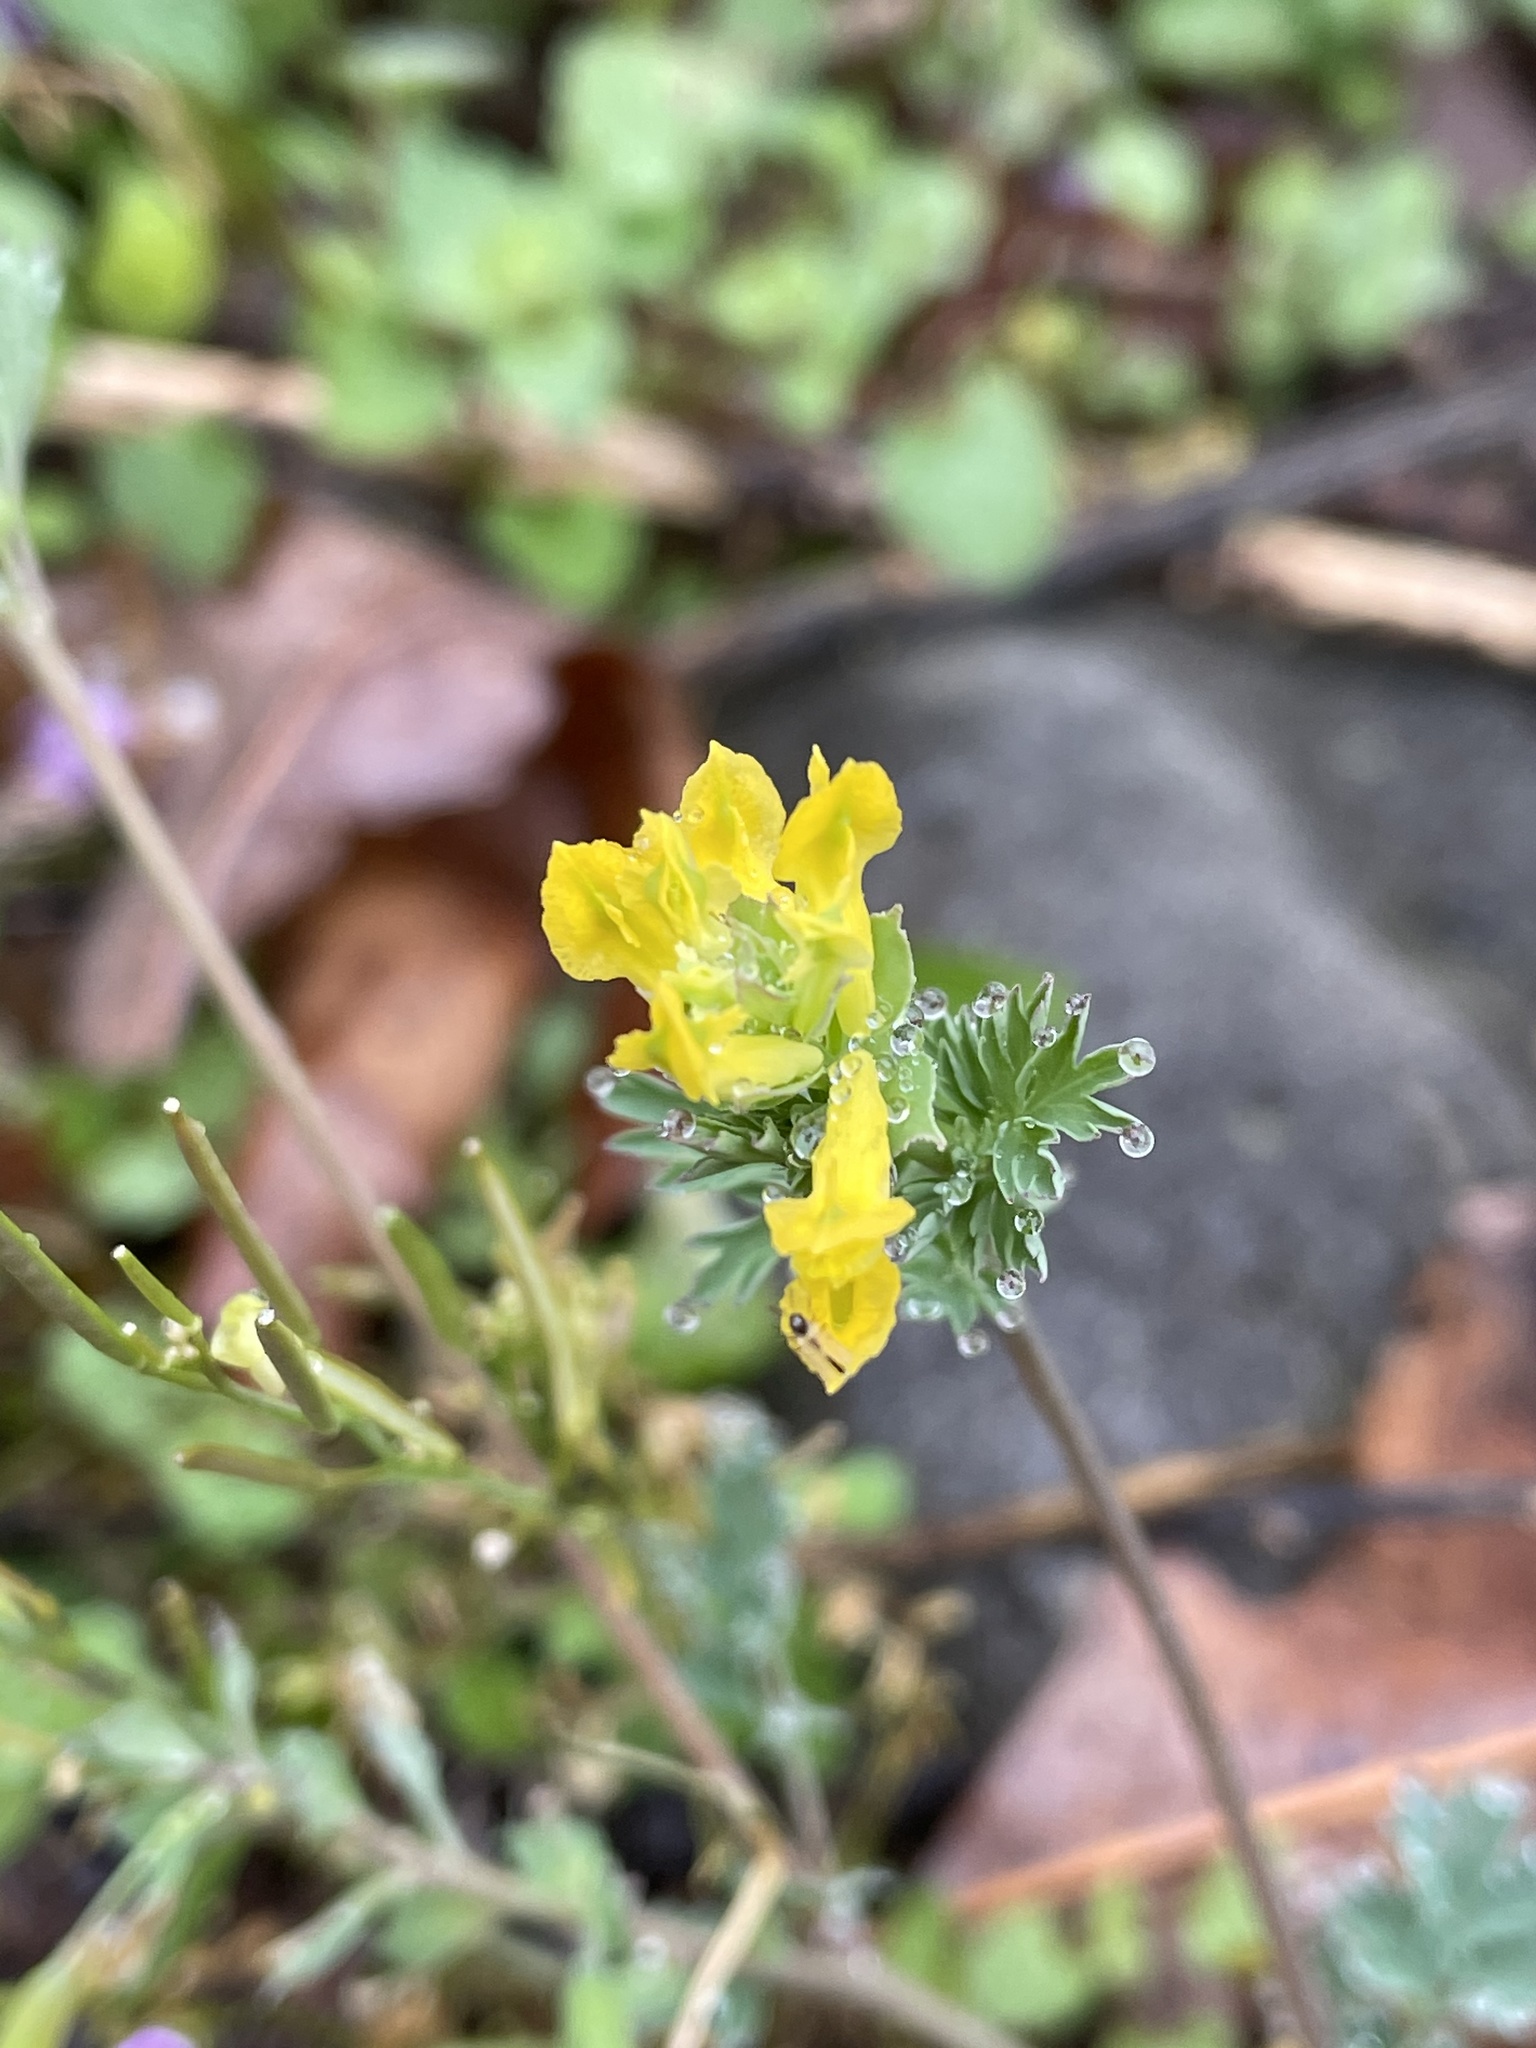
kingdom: Plantae
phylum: Tracheophyta
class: Magnoliopsida
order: Ranunculales
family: Papaveraceae
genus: Corydalis
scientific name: Corydalis flavula
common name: Yellow corydalis
